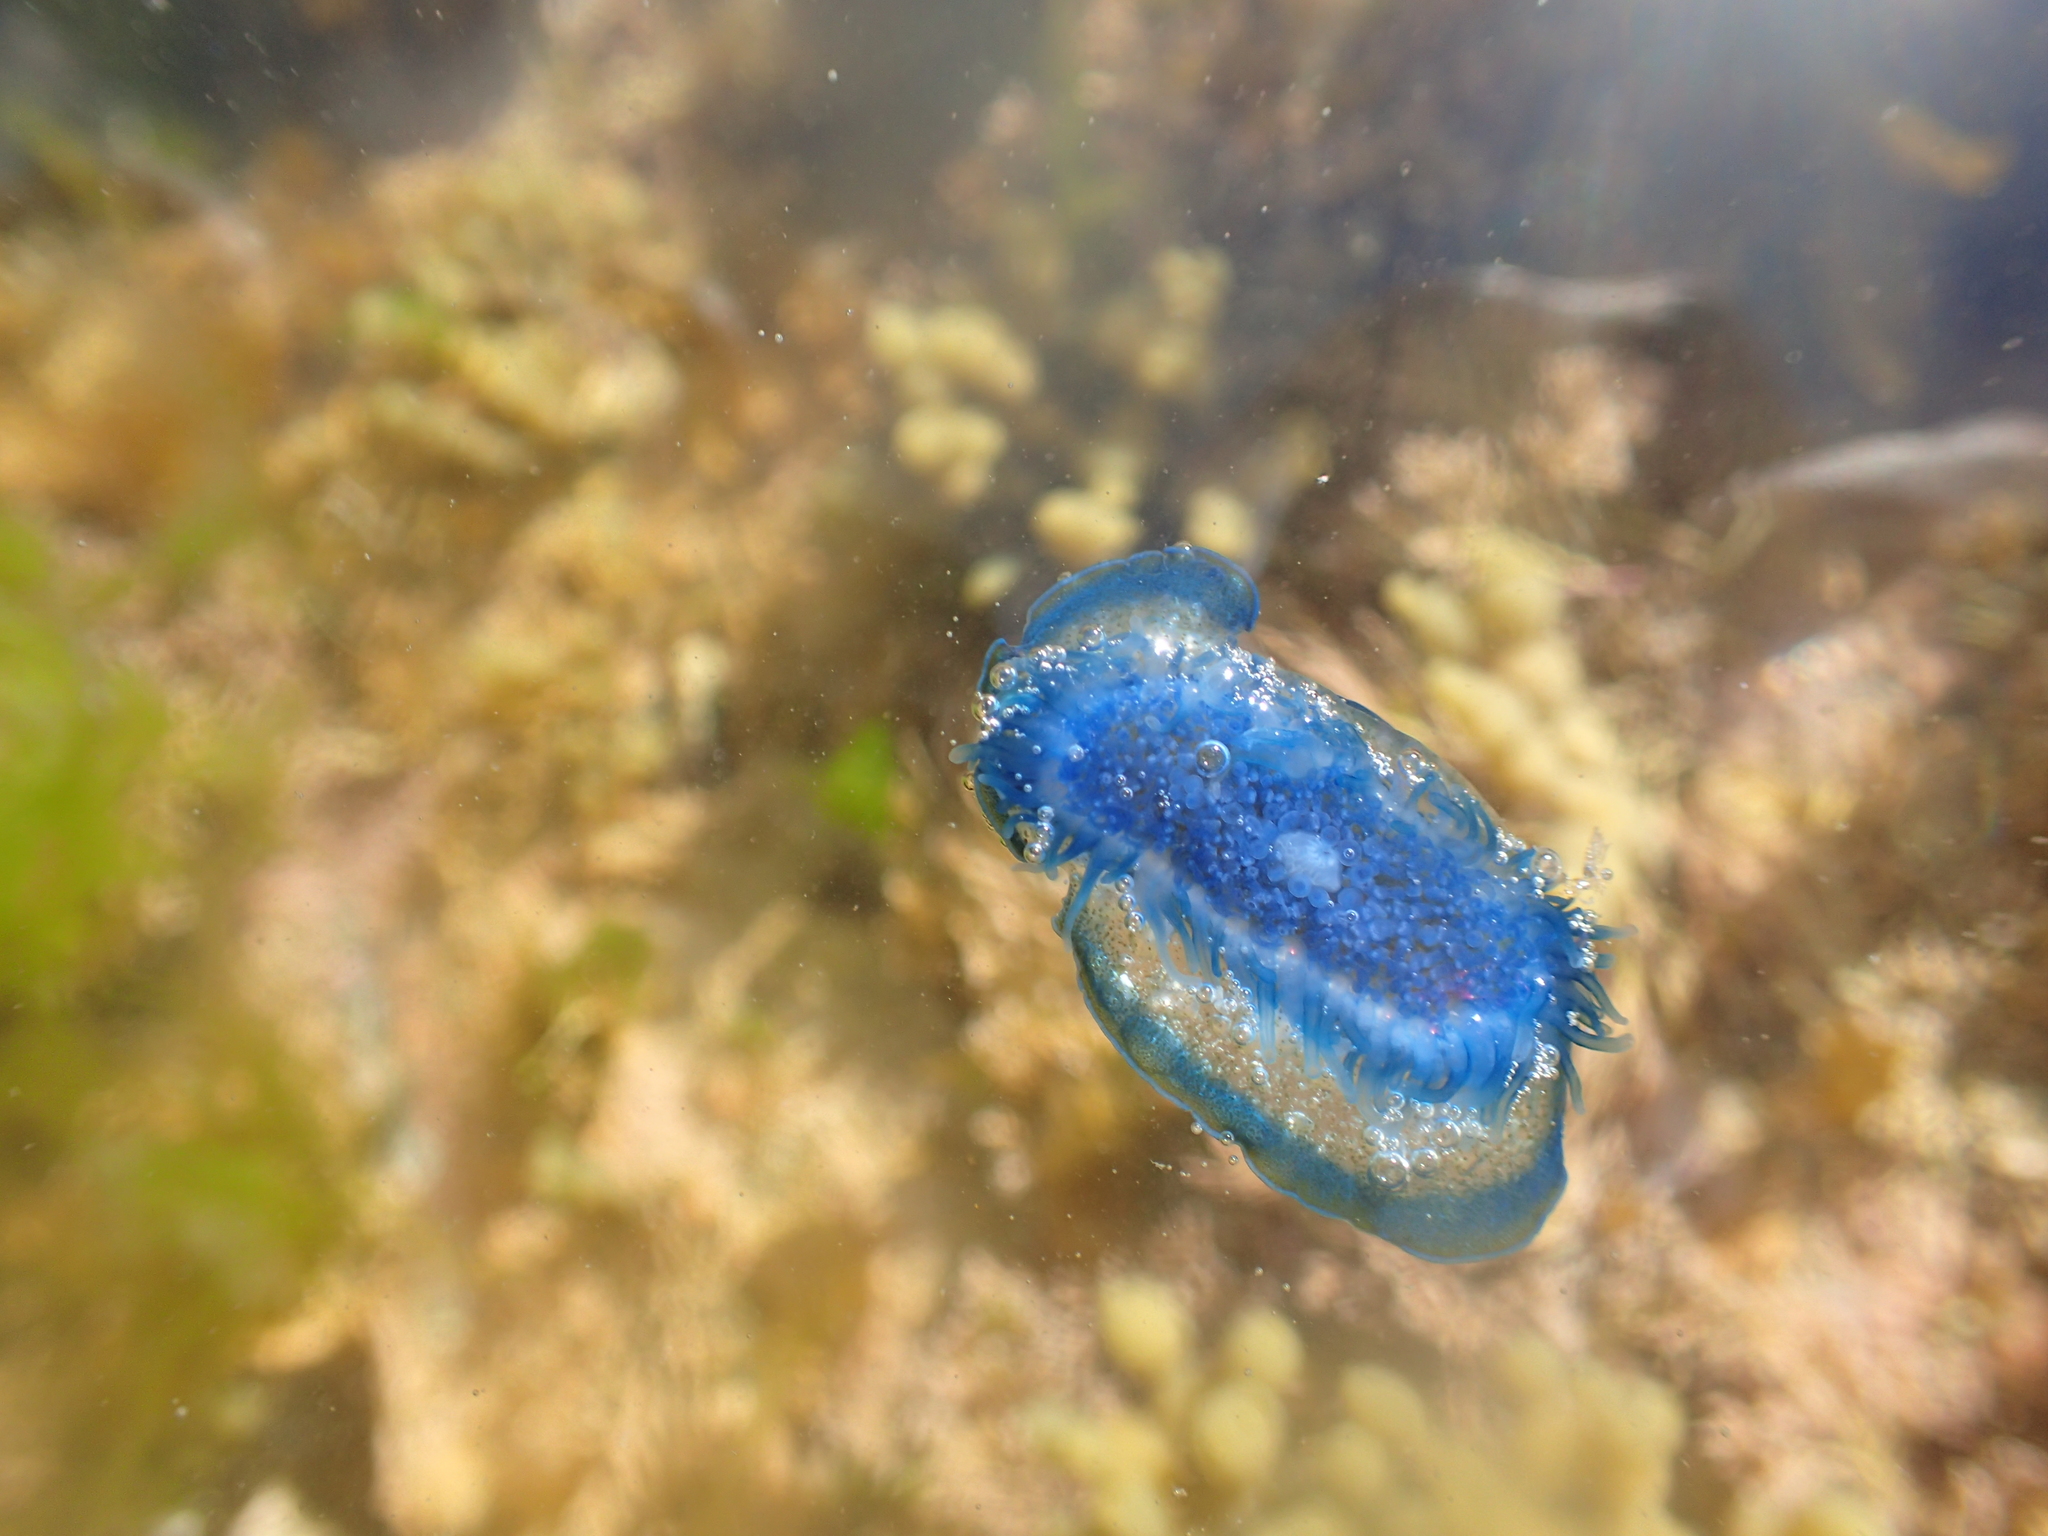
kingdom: Animalia
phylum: Cnidaria
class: Hydrozoa
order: Anthoathecata
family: Porpitidae
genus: Velella
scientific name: Velella velella
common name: By-the-wind-sailor
